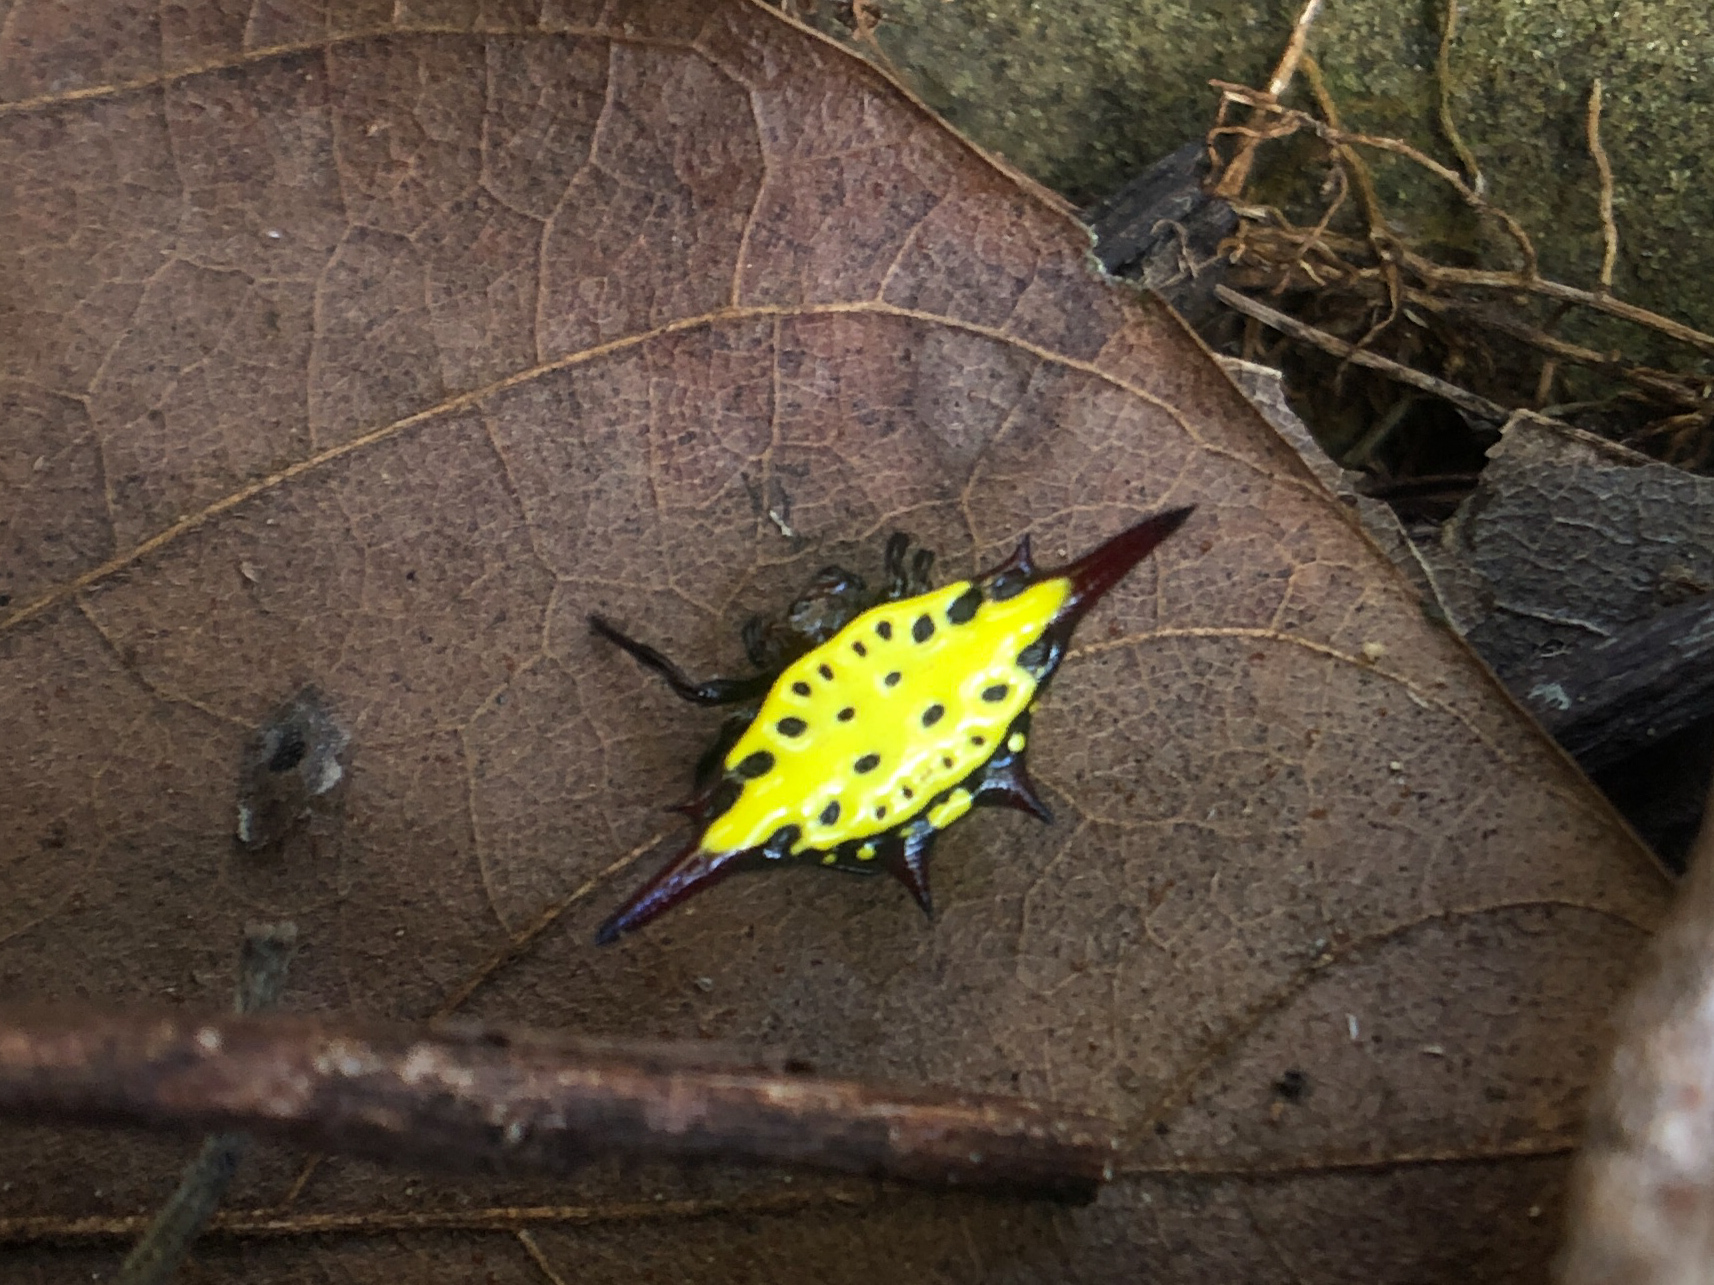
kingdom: Animalia
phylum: Arthropoda
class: Arachnida
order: Araneae
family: Araneidae
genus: Gasteracantha
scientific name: Gasteracantha sauteri
